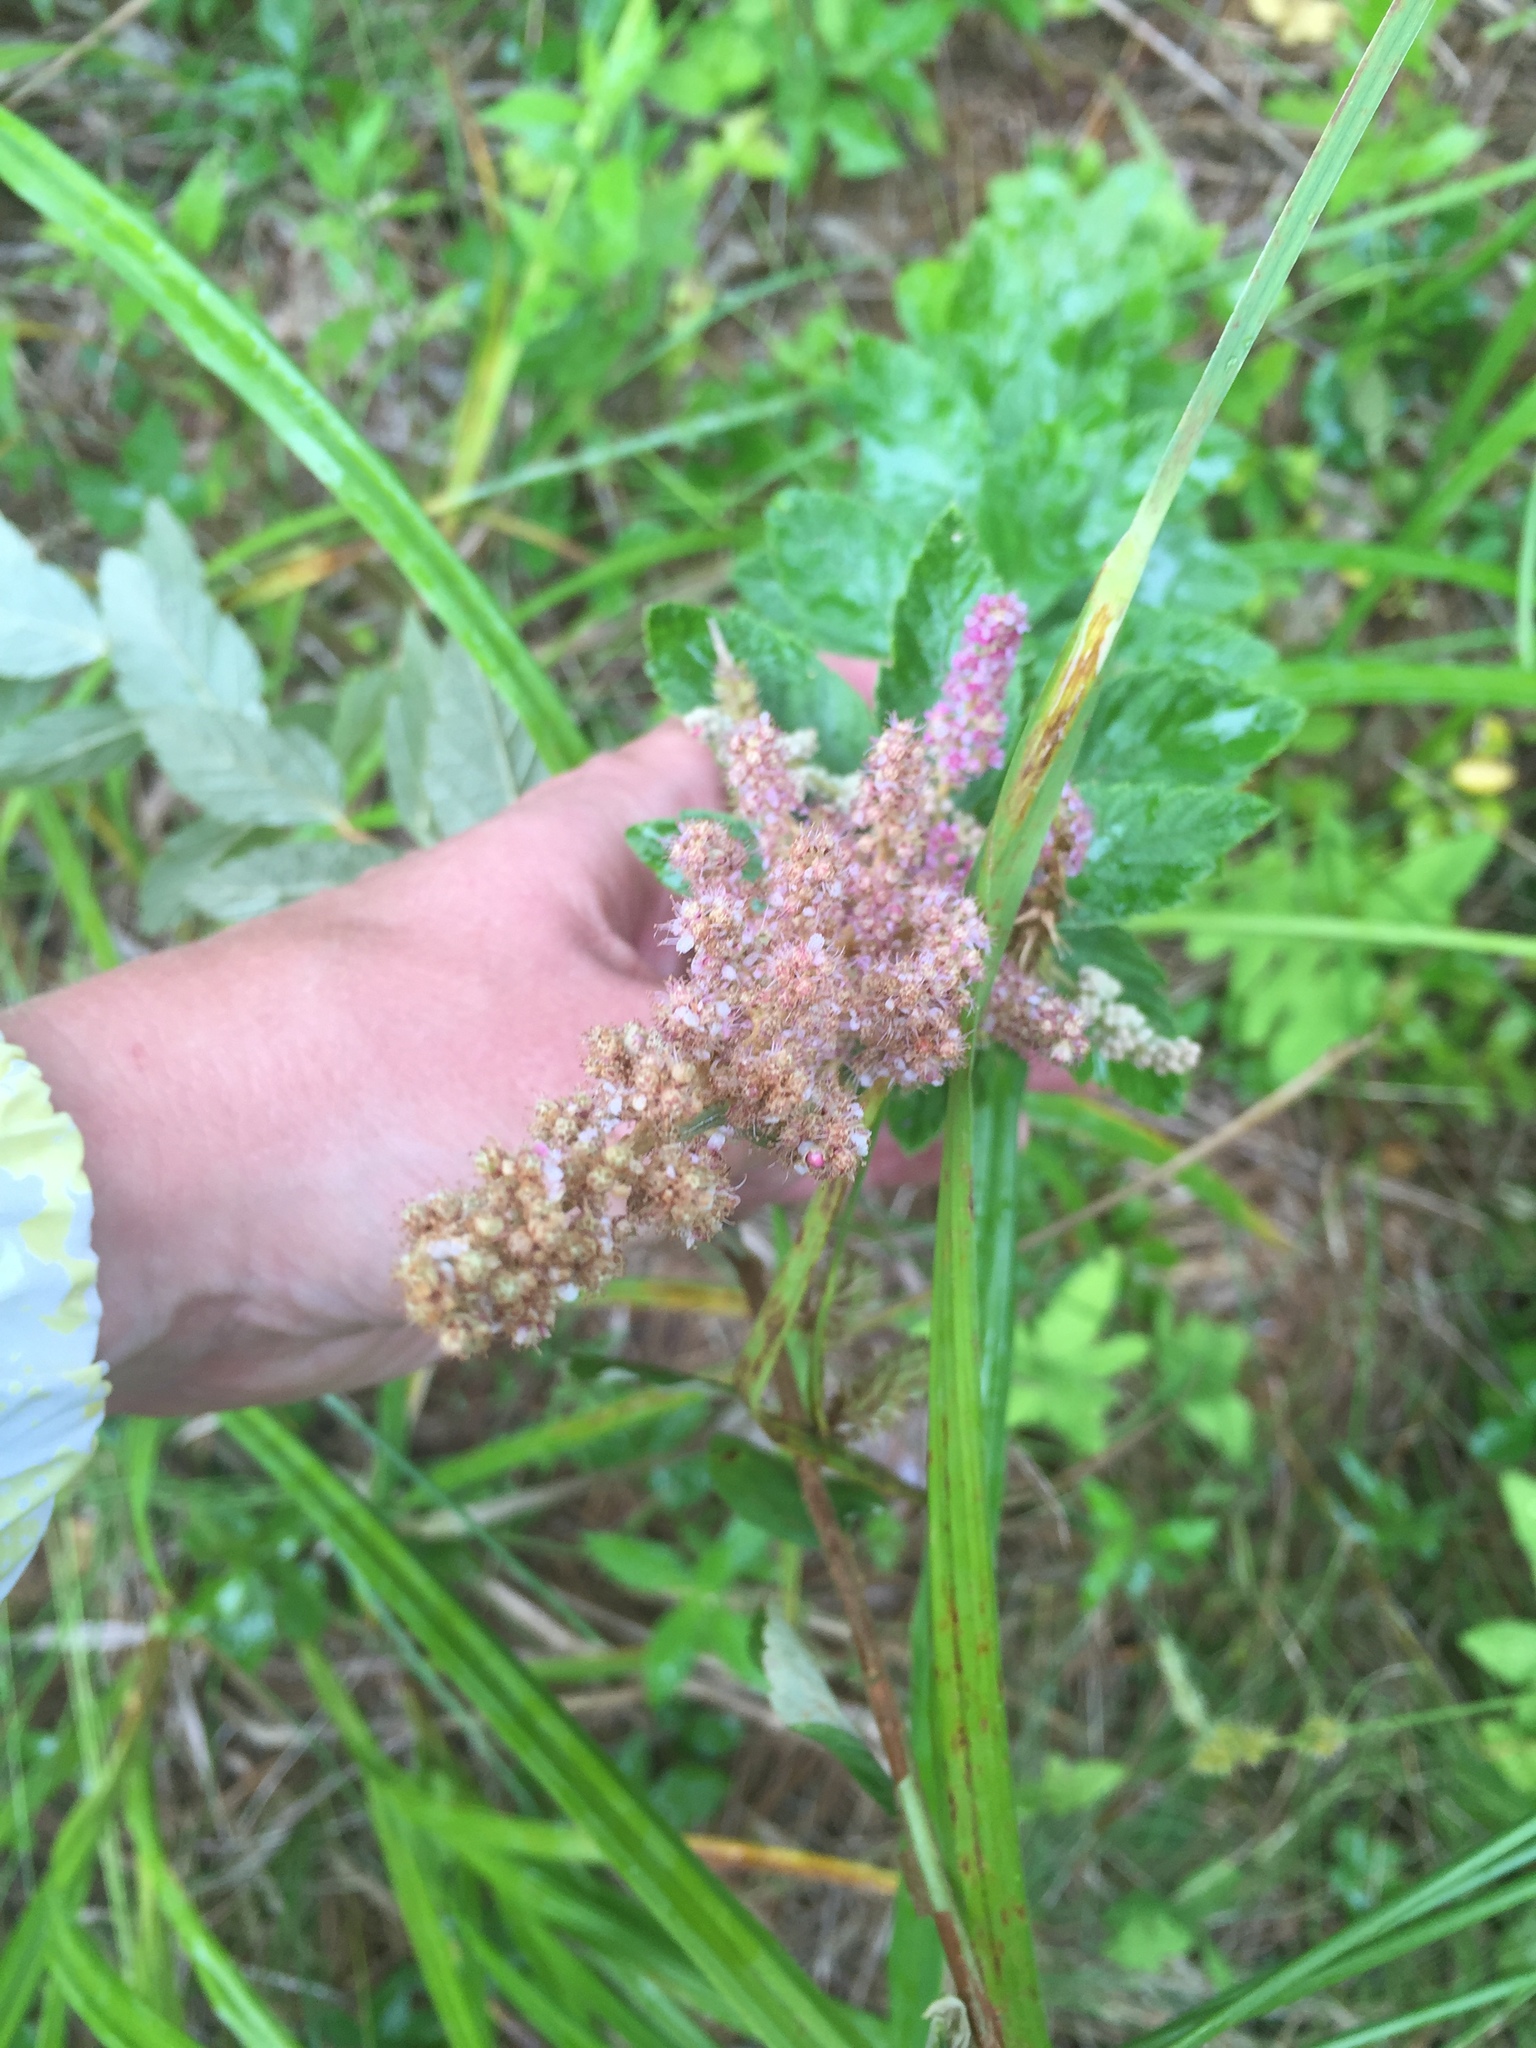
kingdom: Plantae
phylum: Tracheophyta
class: Magnoliopsida
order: Rosales
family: Rosaceae
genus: Spiraea
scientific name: Spiraea tomentosa
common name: Hardhack
